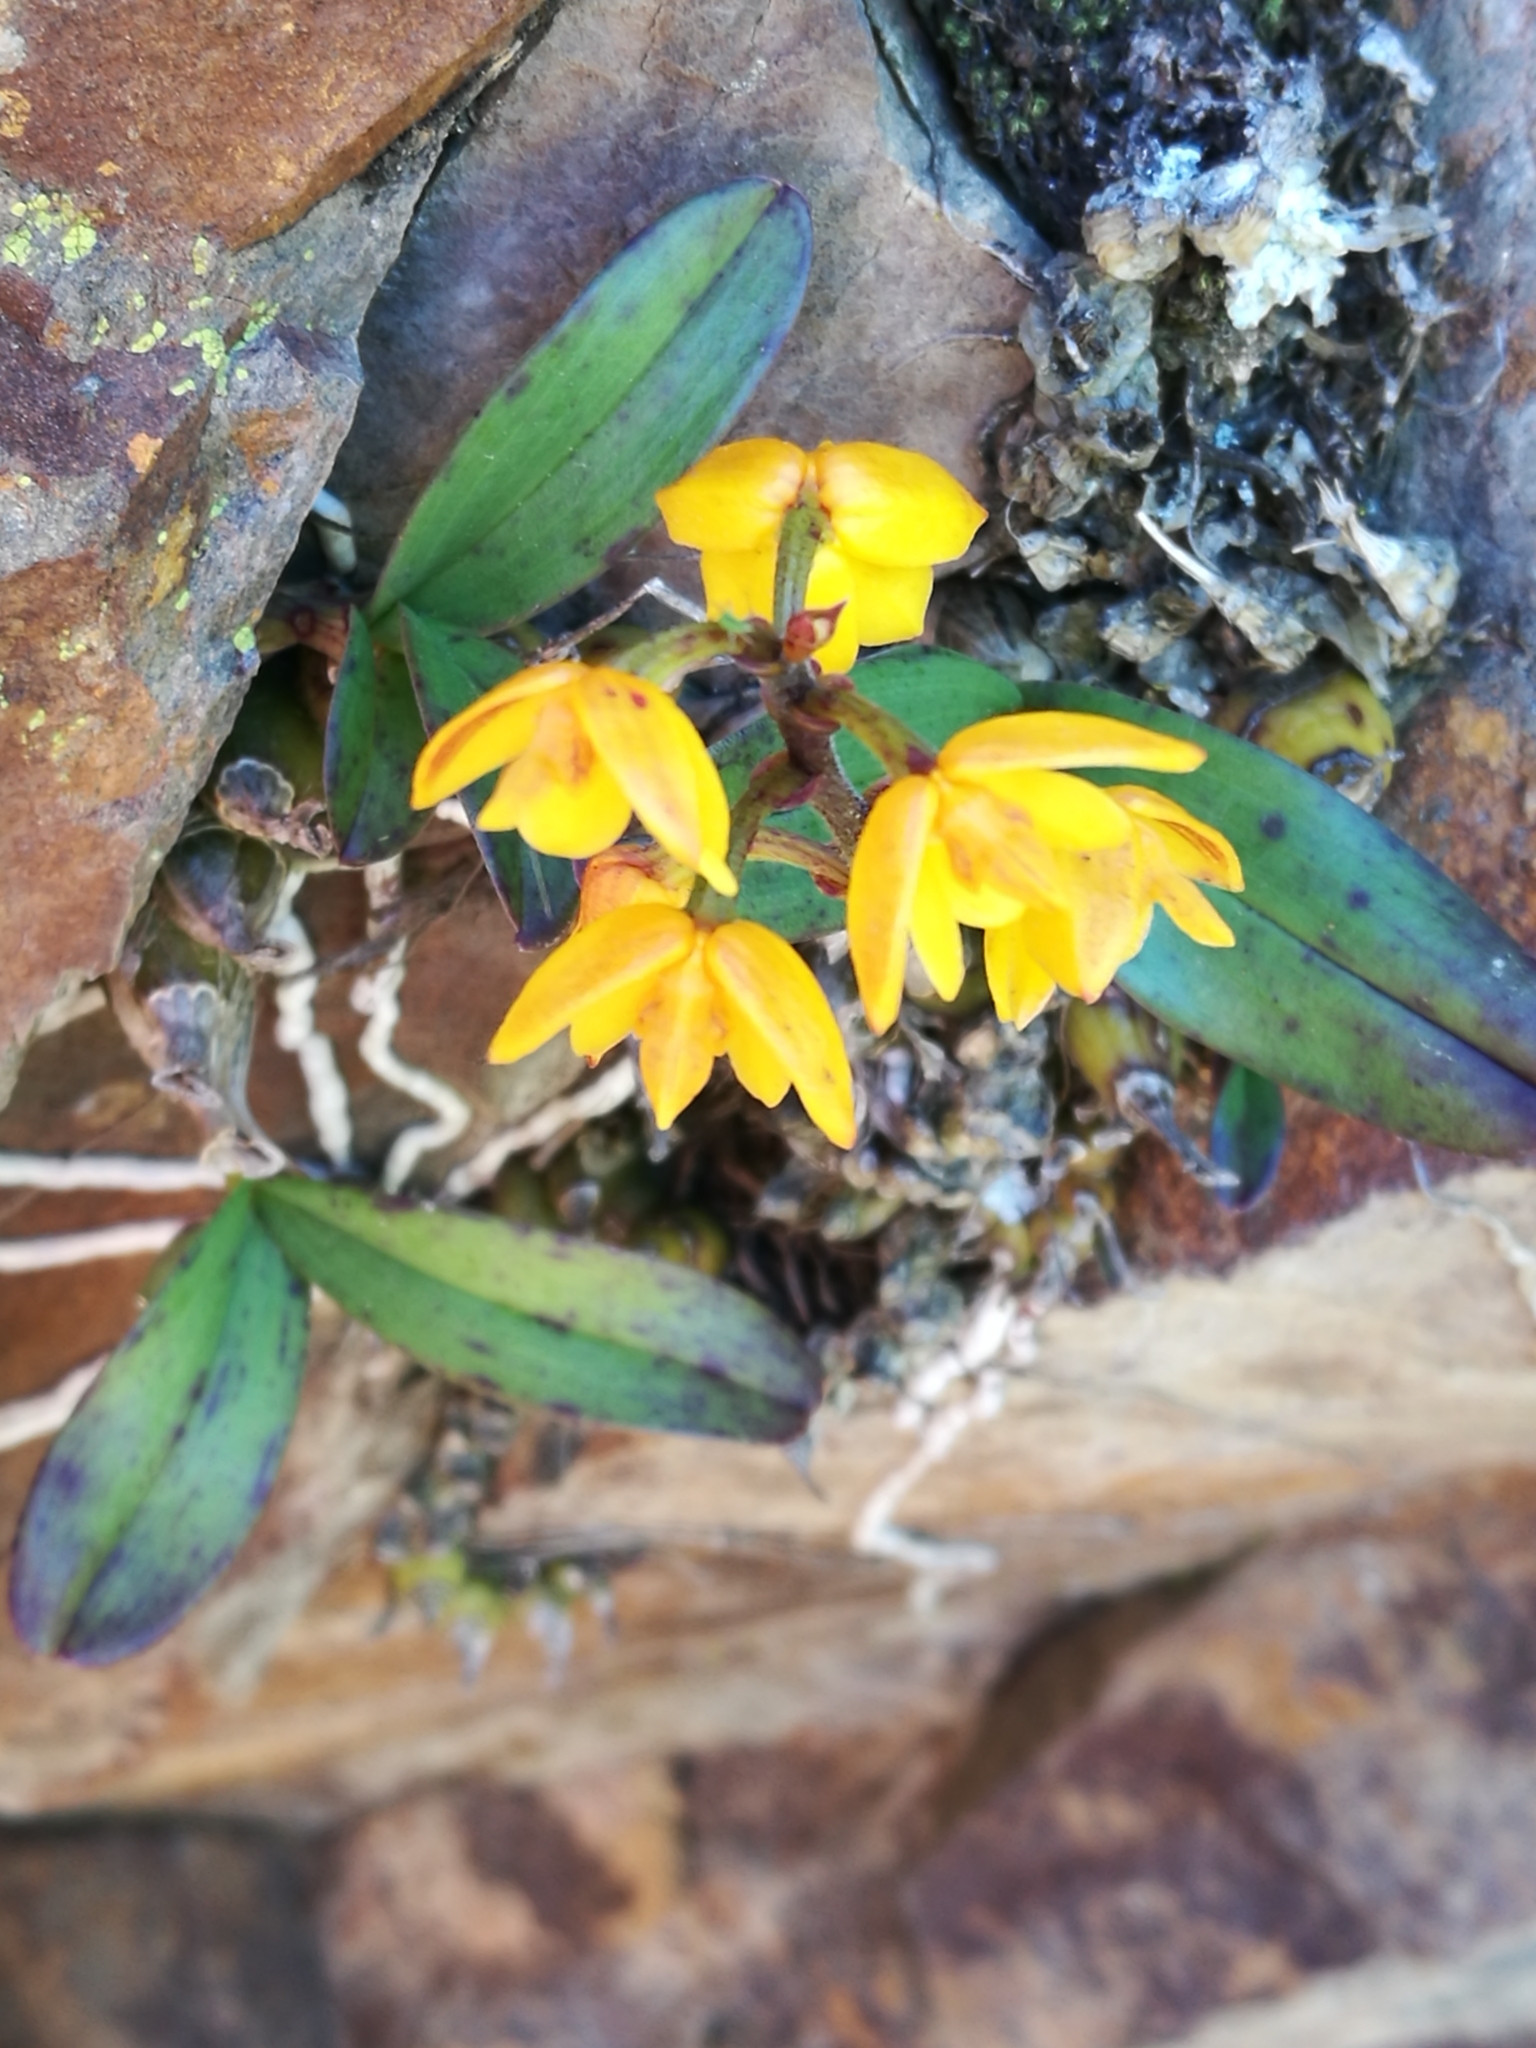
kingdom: Plantae
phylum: Tracheophyta
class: Liliopsida
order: Asparagales
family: Orchidaceae
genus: Polystachya
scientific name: Polystachya pubescens
